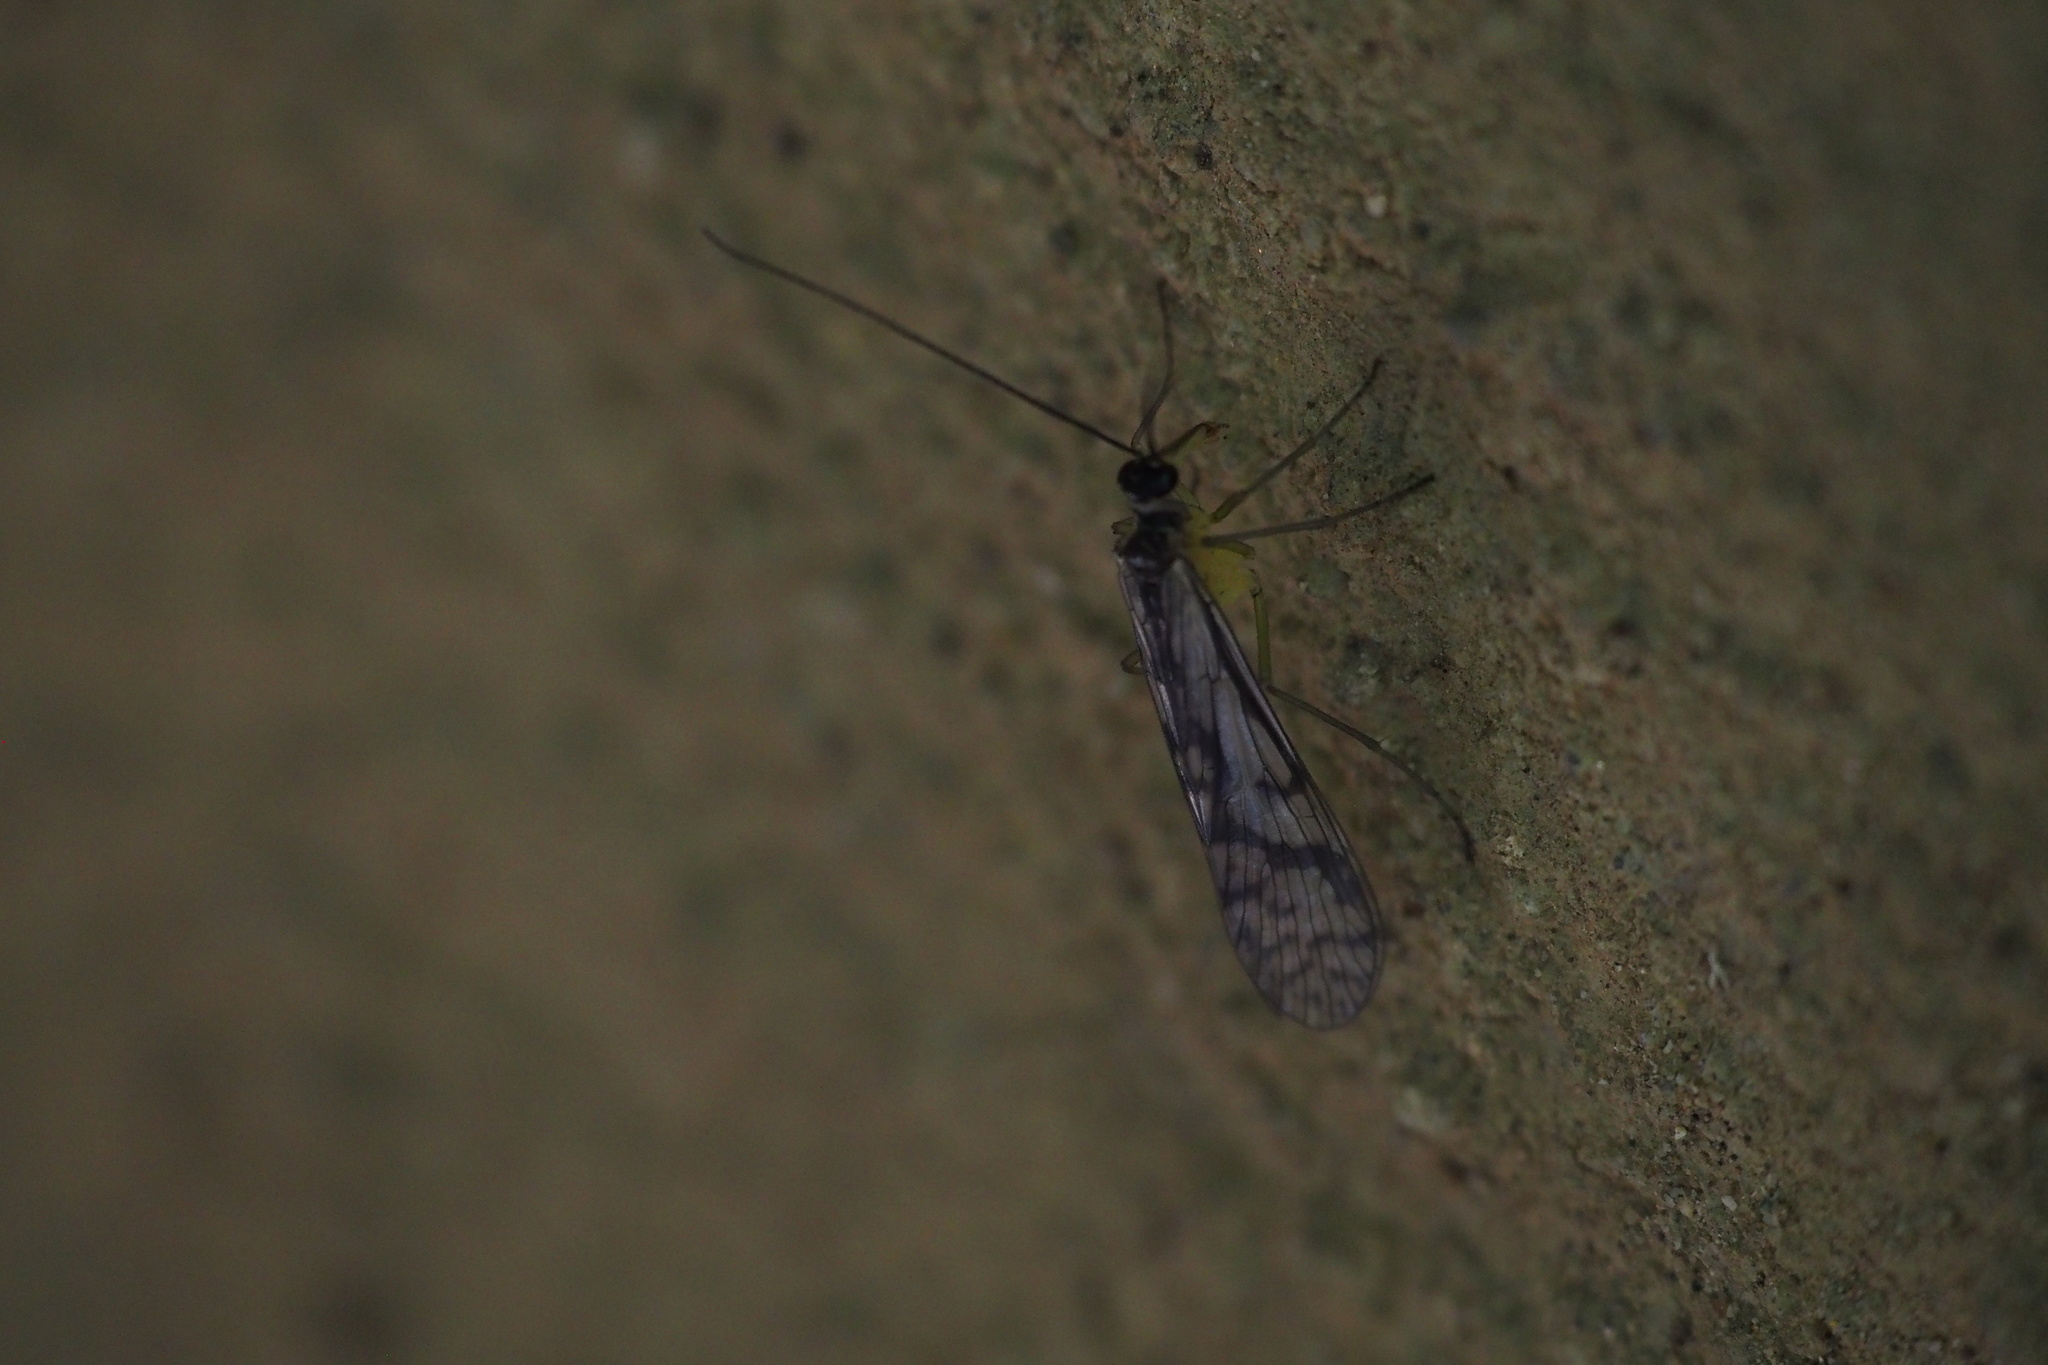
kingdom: Animalia
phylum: Arthropoda
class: Insecta
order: Mecoptera
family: Panorpidae
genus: Panorpa
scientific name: Panorpa multifasciaria
